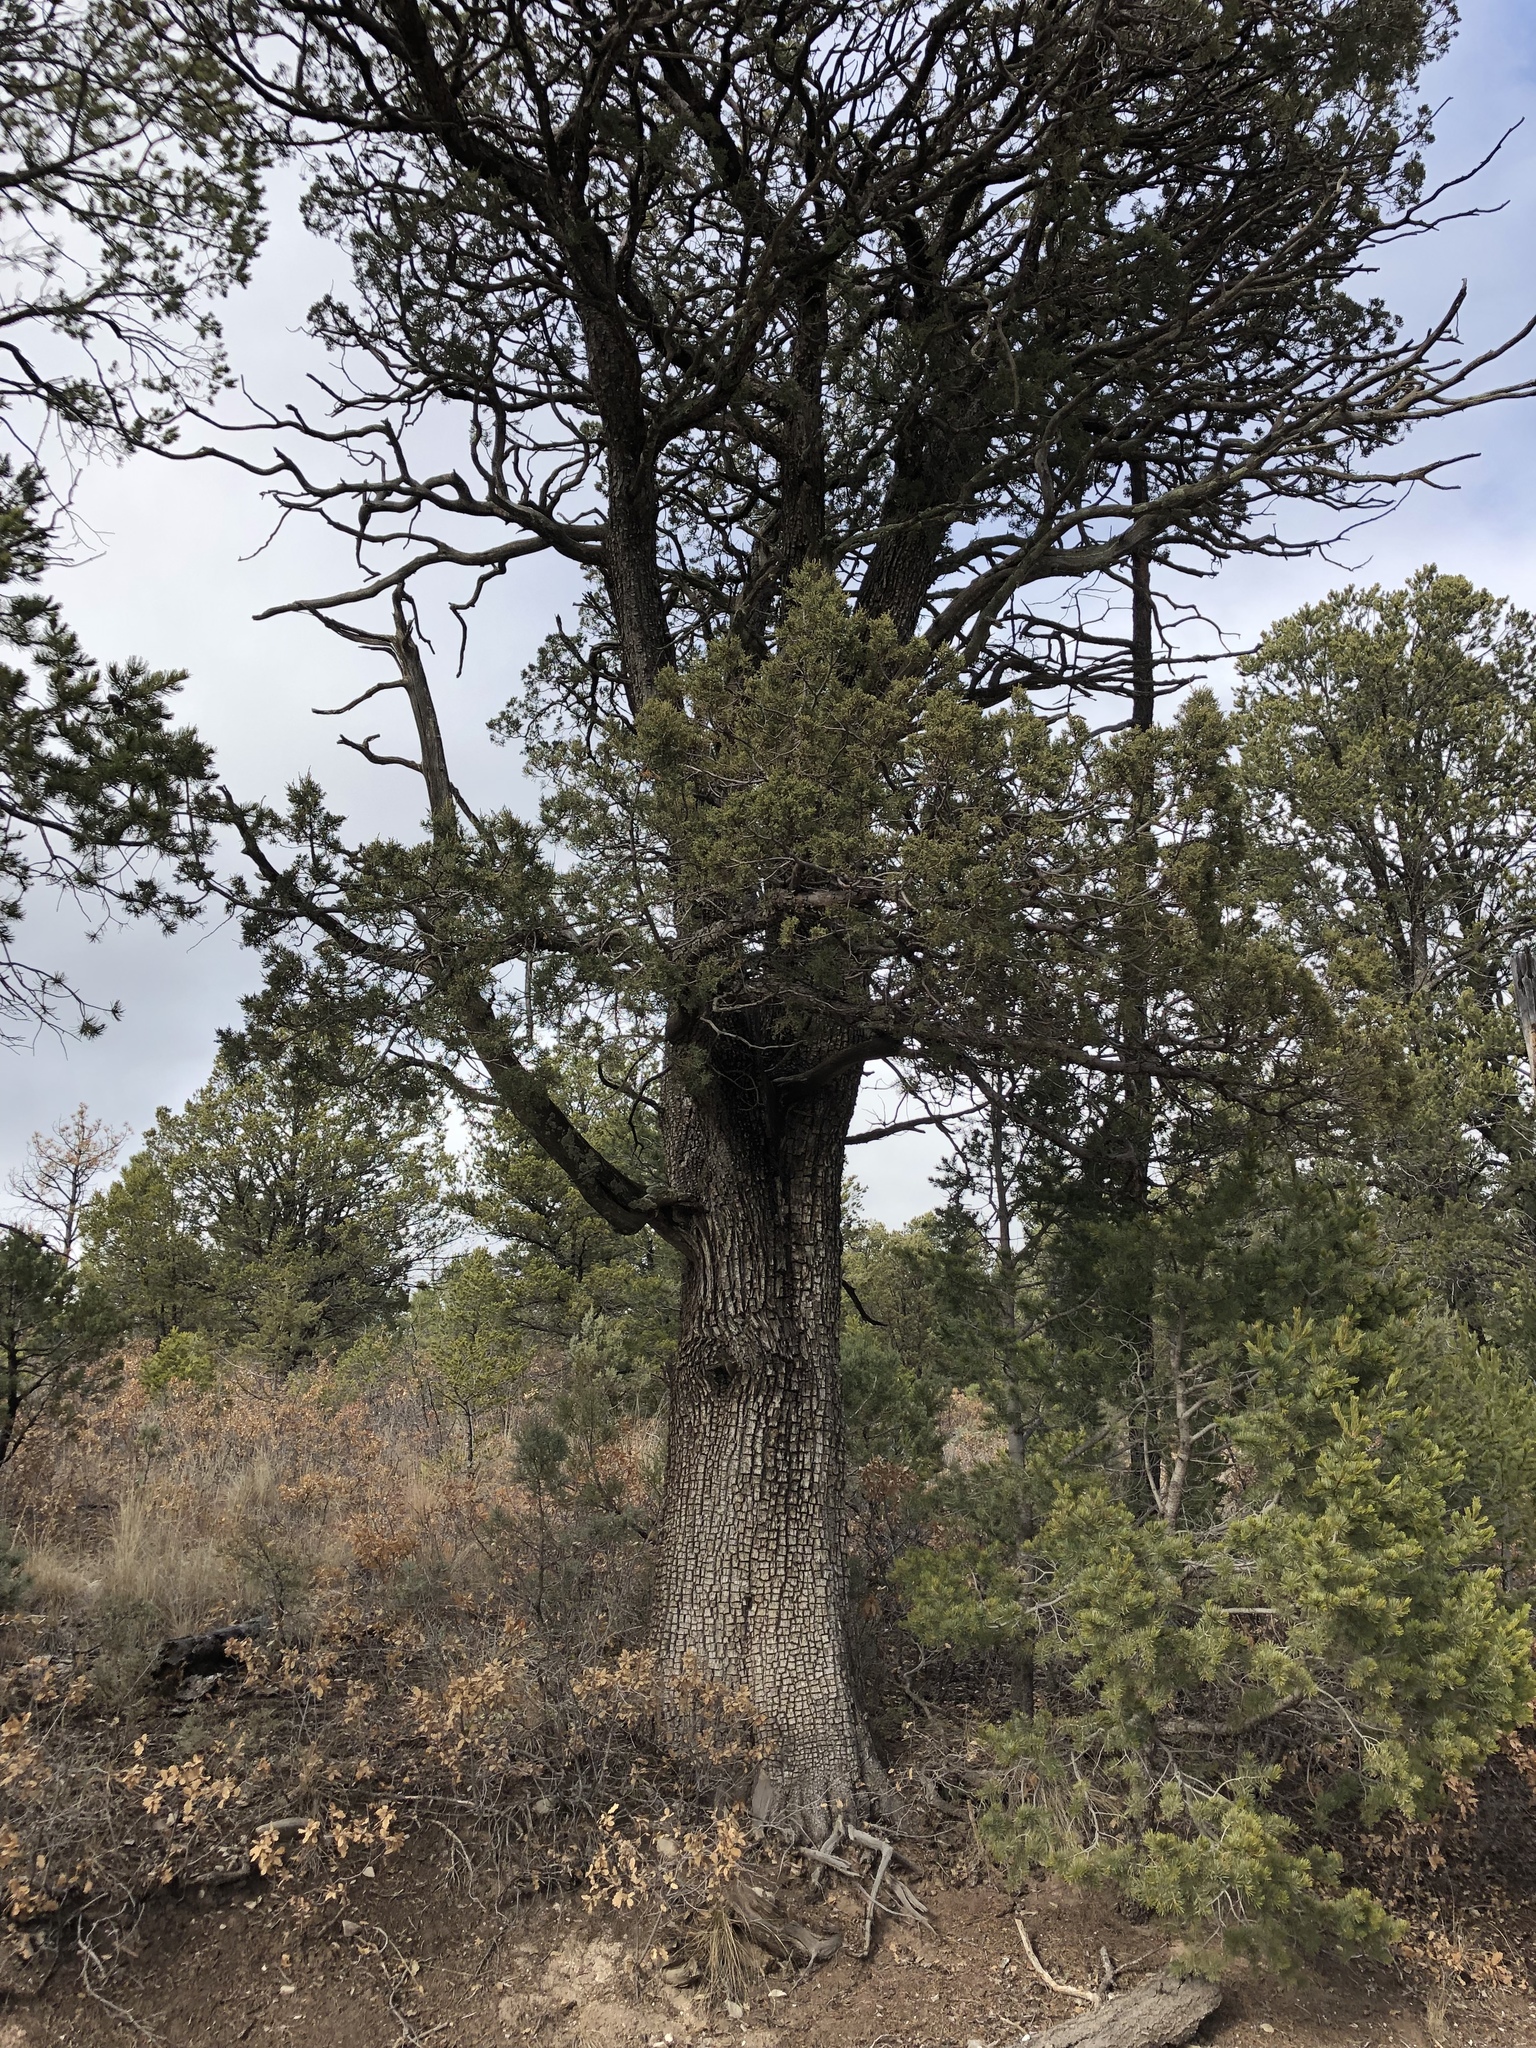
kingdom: Plantae
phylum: Tracheophyta
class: Pinopsida
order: Pinales
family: Cupressaceae
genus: Juniperus
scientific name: Juniperus deppeana
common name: Alligator juniper
